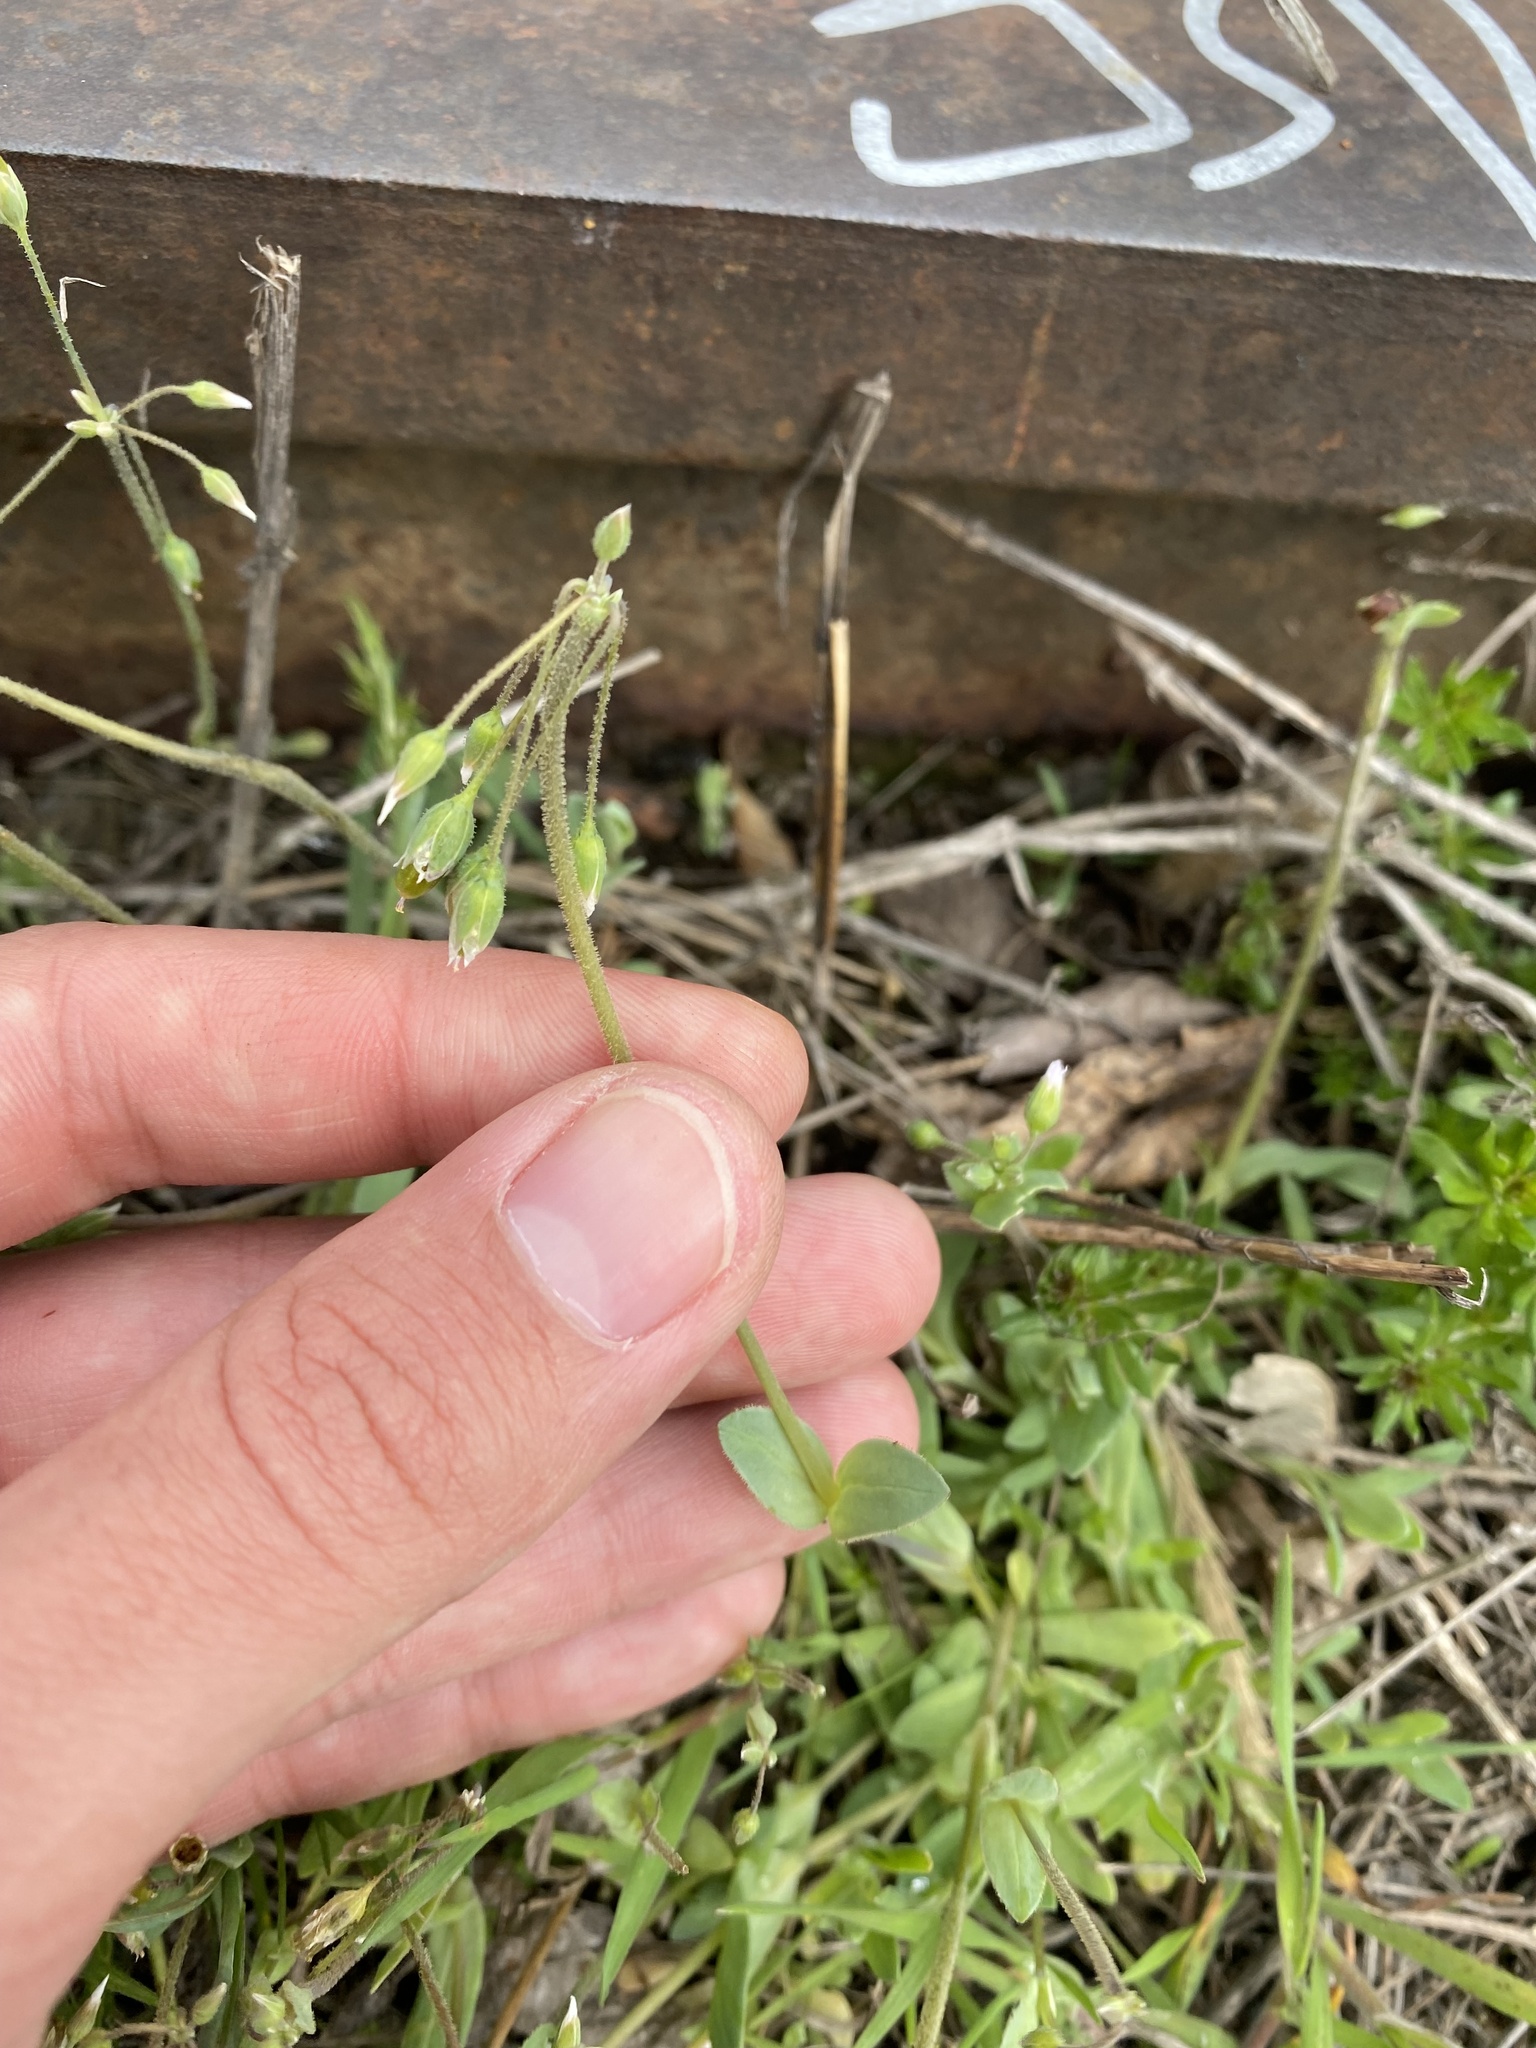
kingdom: Plantae
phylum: Tracheophyta
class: Magnoliopsida
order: Caryophyllales
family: Caryophyllaceae
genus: Holosteum
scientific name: Holosteum umbellatum
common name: Jagged chickweed
